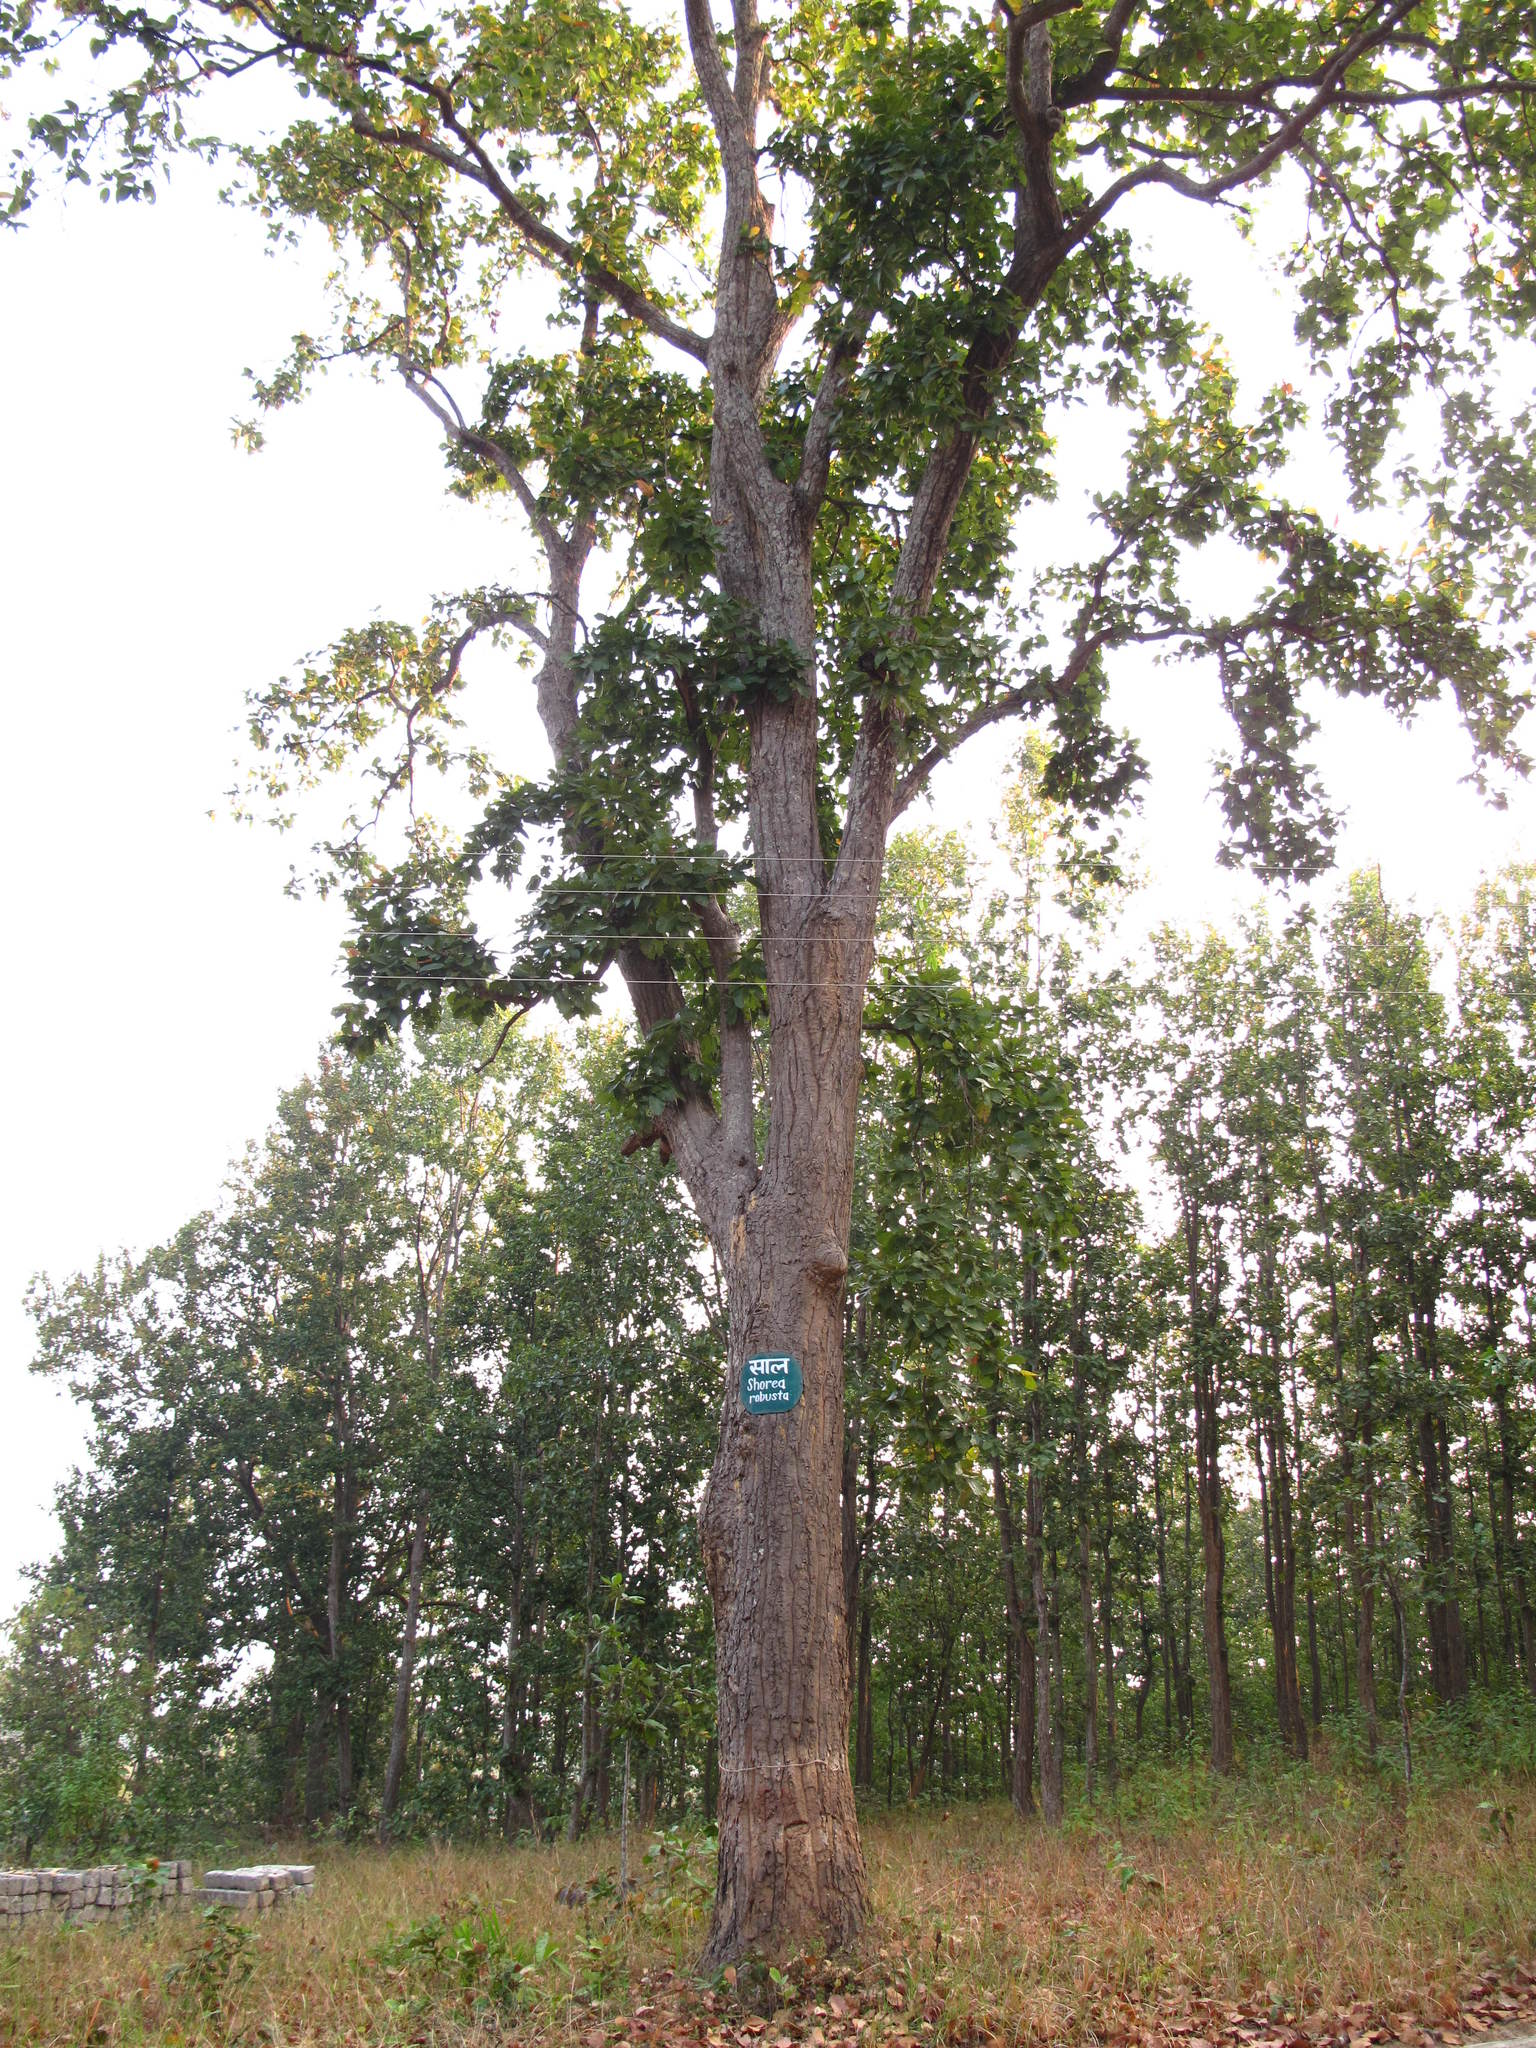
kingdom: Plantae
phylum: Tracheophyta
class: Magnoliopsida
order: Malvales
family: Dipterocarpaceae
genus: Shorea
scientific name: Shorea robusta
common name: Saltree
